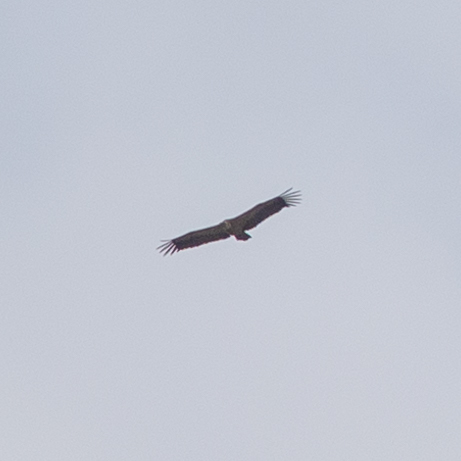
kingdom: Animalia
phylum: Chordata
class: Aves
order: Accipitriformes
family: Accipitridae
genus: Gyps
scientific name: Gyps fulvus
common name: Griffon vulture
